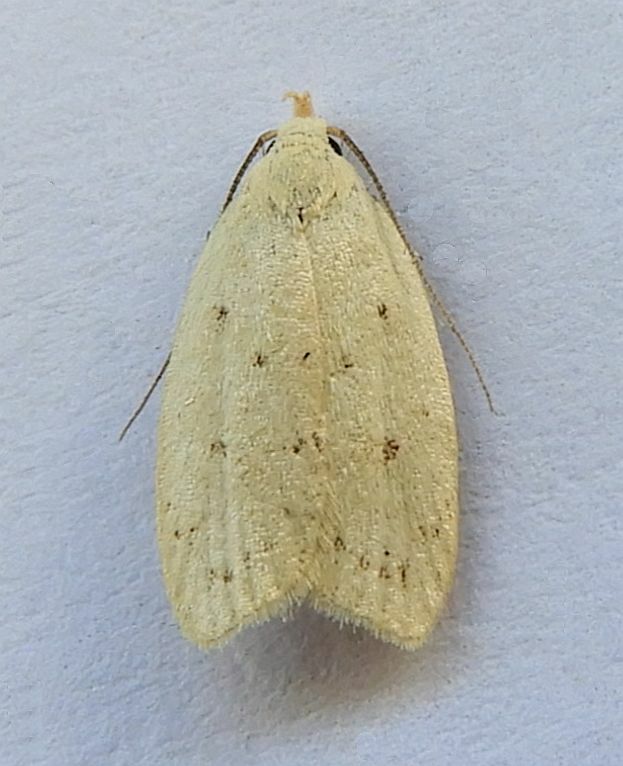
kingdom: Animalia
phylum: Arthropoda
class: Insecta
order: Lepidoptera
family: Oecophoridae
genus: Inga
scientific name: Inga cretacea
